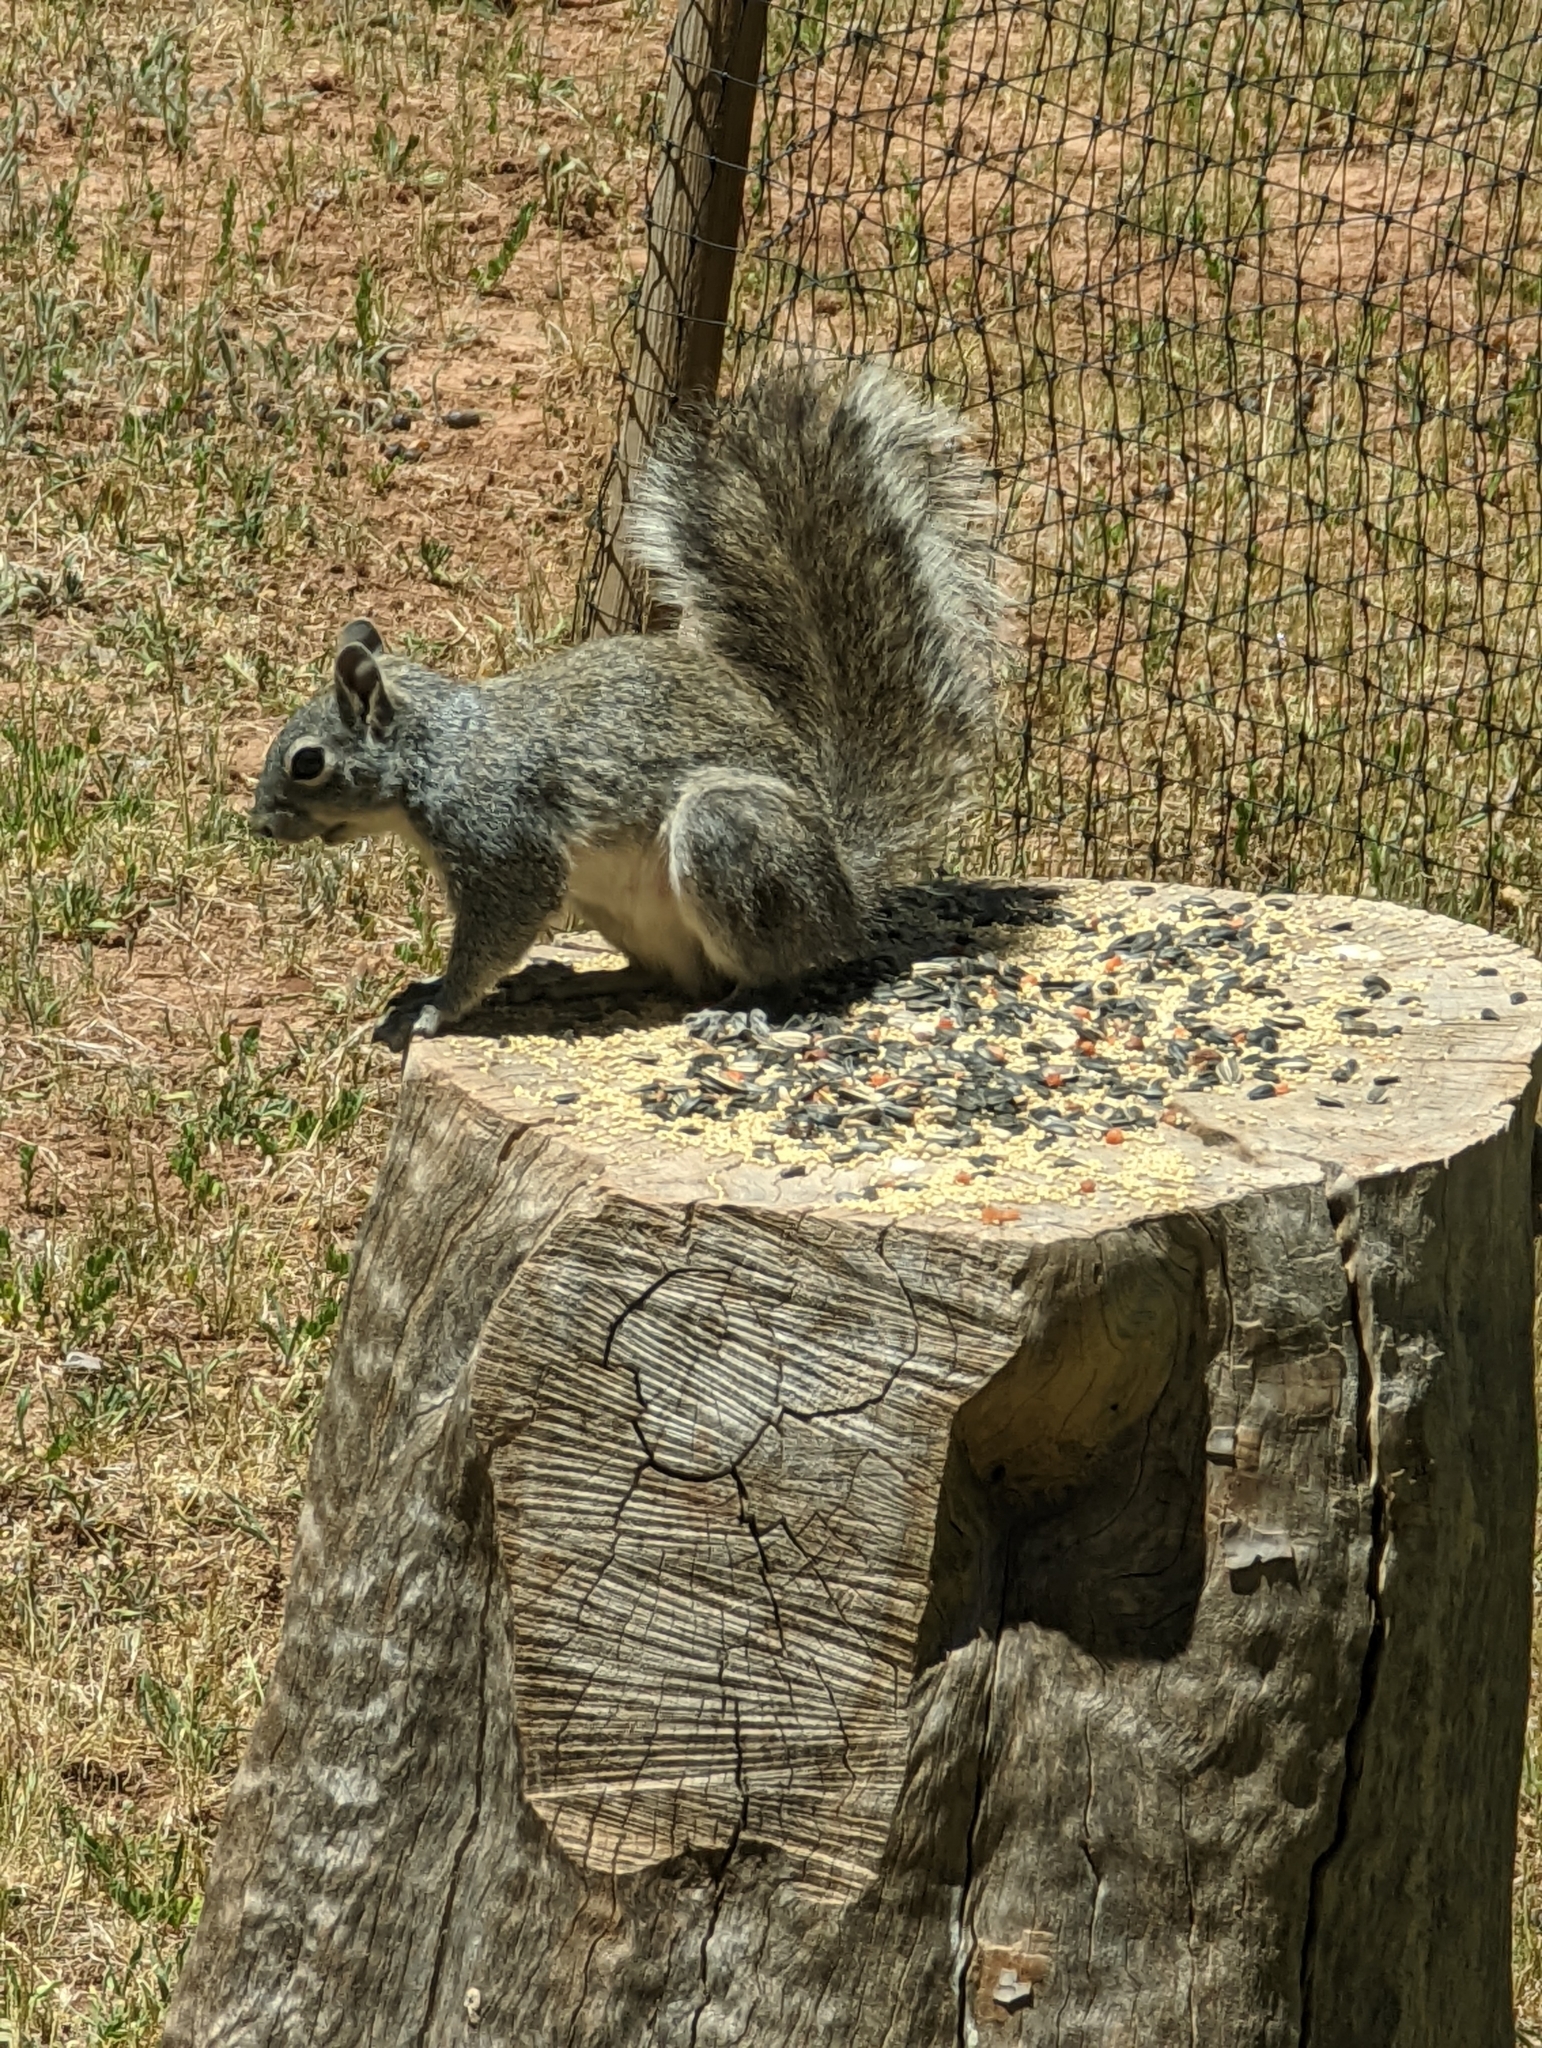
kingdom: Animalia
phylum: Chordata
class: Mammalia
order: Rodentia
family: Sciuridae
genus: Sciurus
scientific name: Sciurus arizonensis
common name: Arizona gray squirrel
